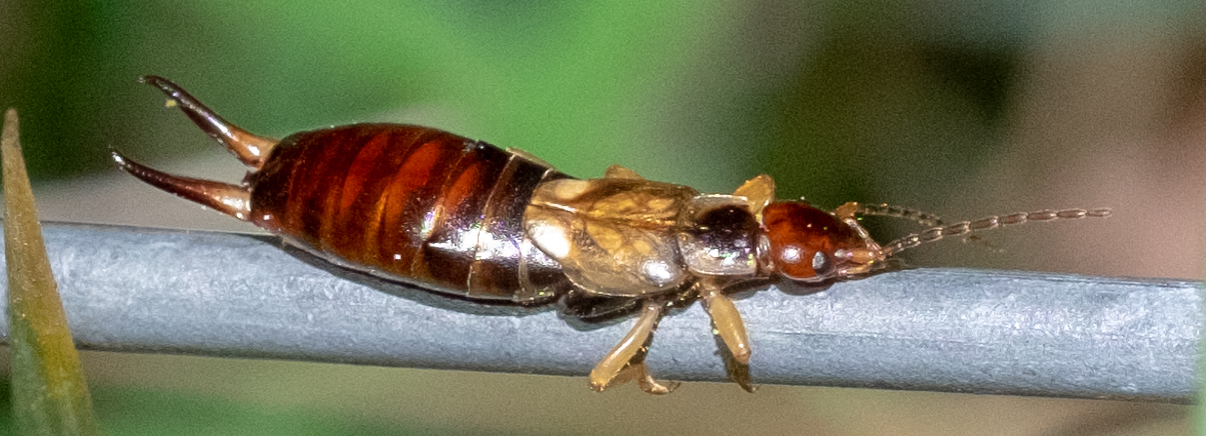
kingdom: Animalia
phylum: Arthropoda
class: Insecta
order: Dermaptera
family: Forficulidae
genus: Forficula
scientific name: Forficula
